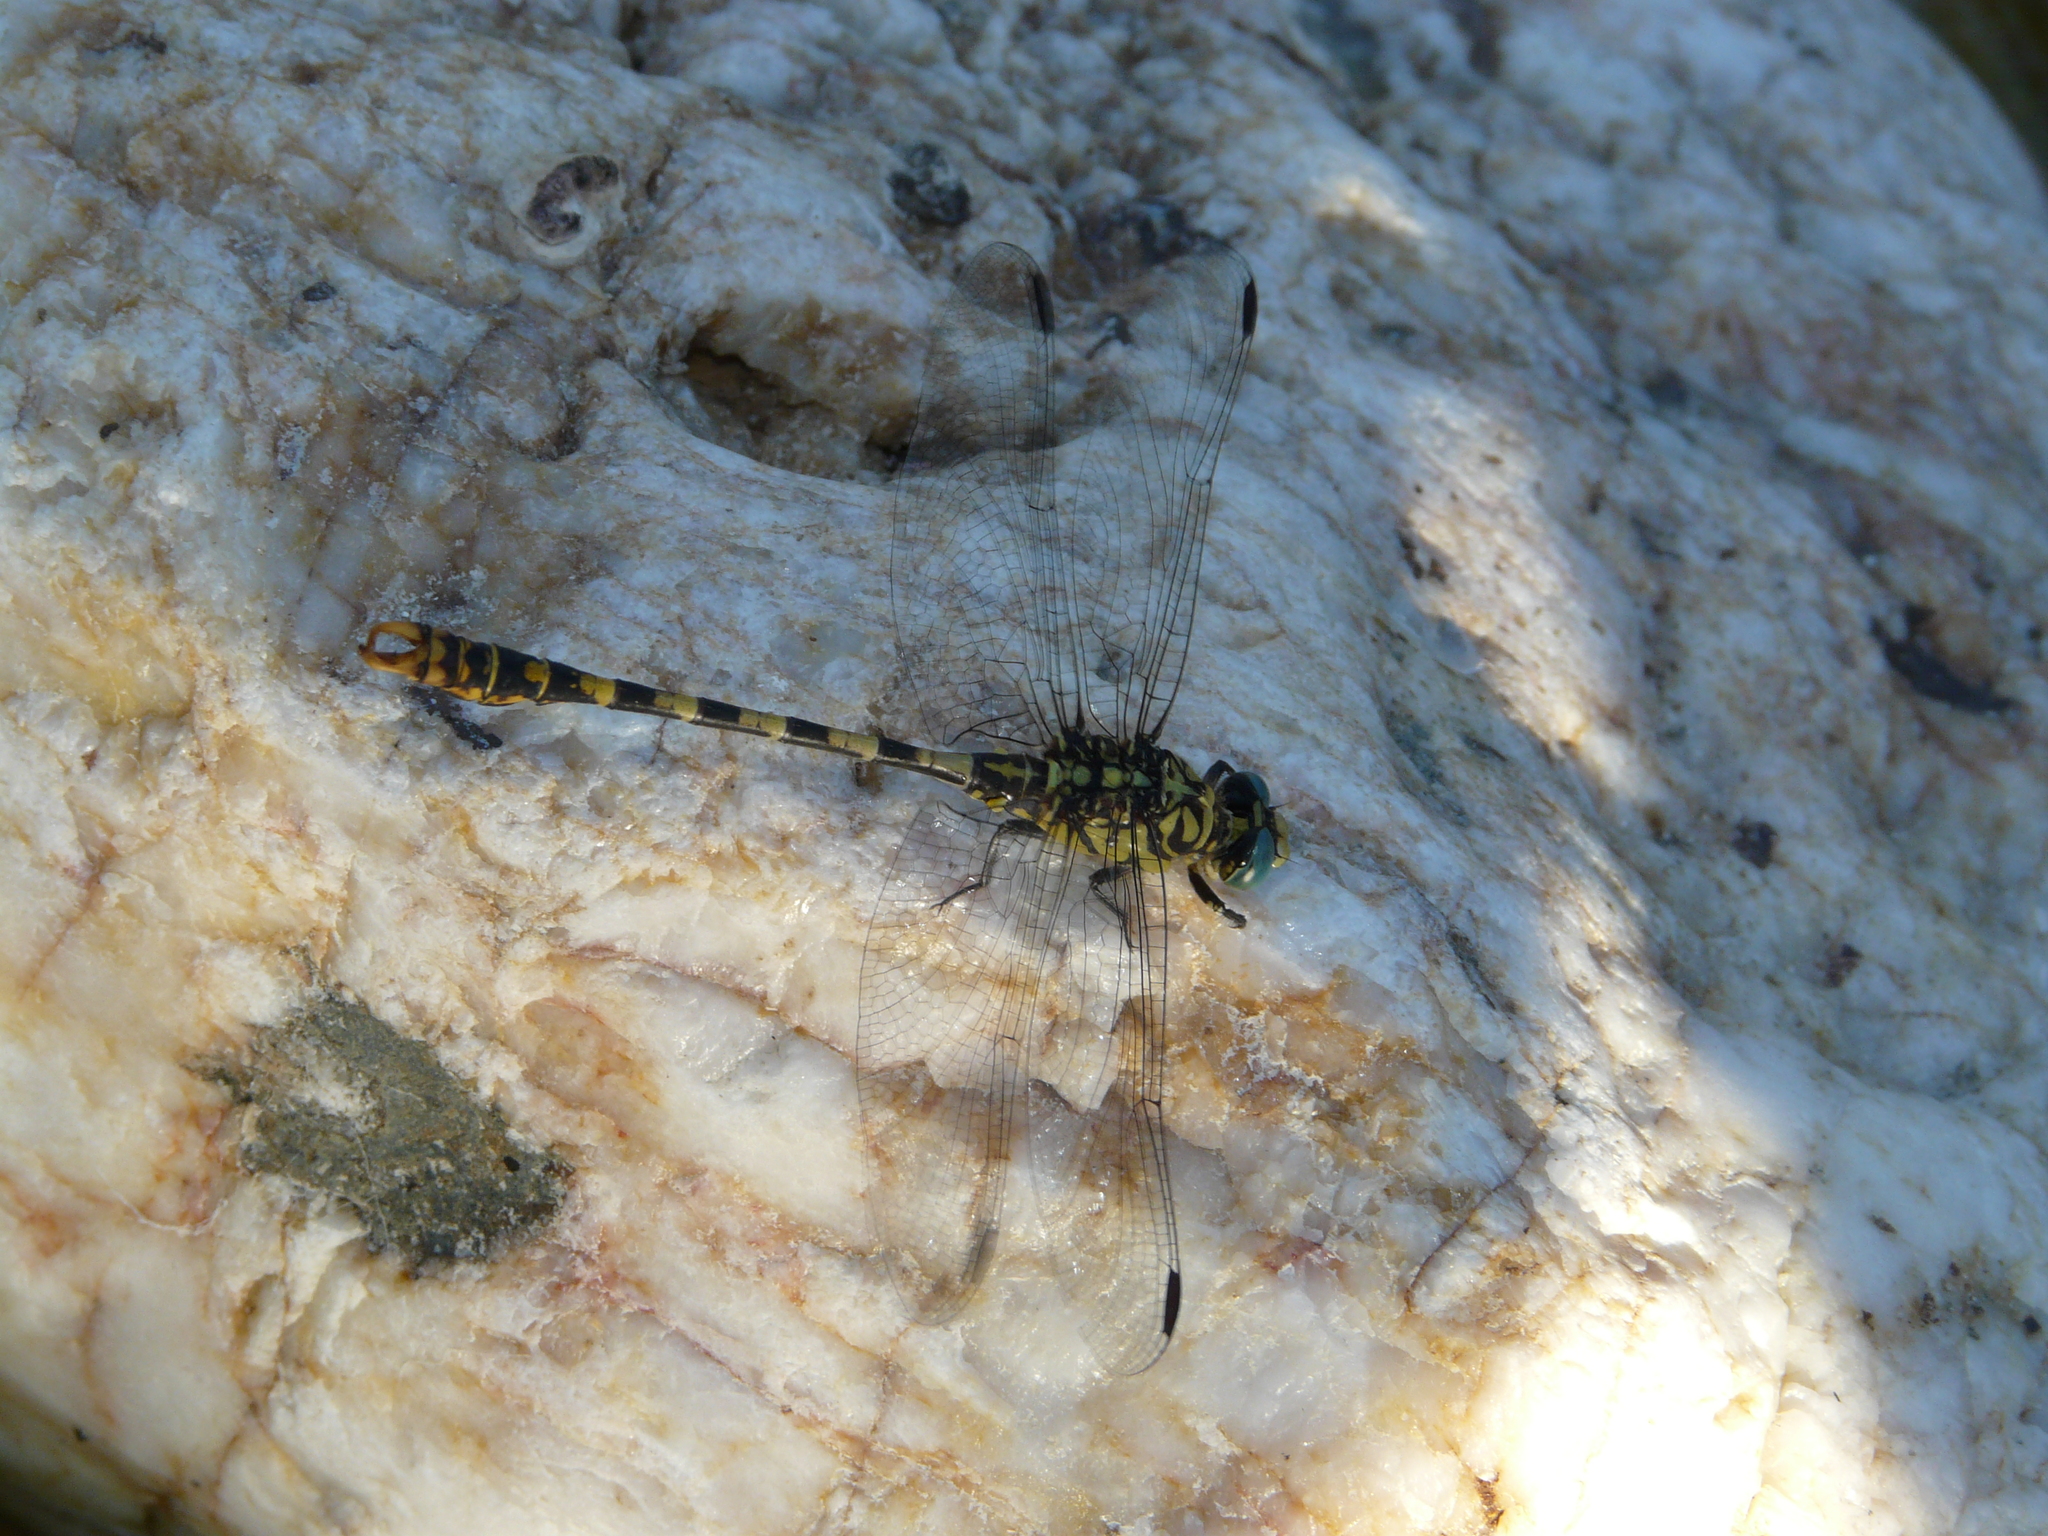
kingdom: Animalia
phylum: Arthropoda
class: Insecta
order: Odonata
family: Gomphidae
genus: Onychogomphus
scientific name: Onychogomphus forcipatus
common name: Small pincertail
